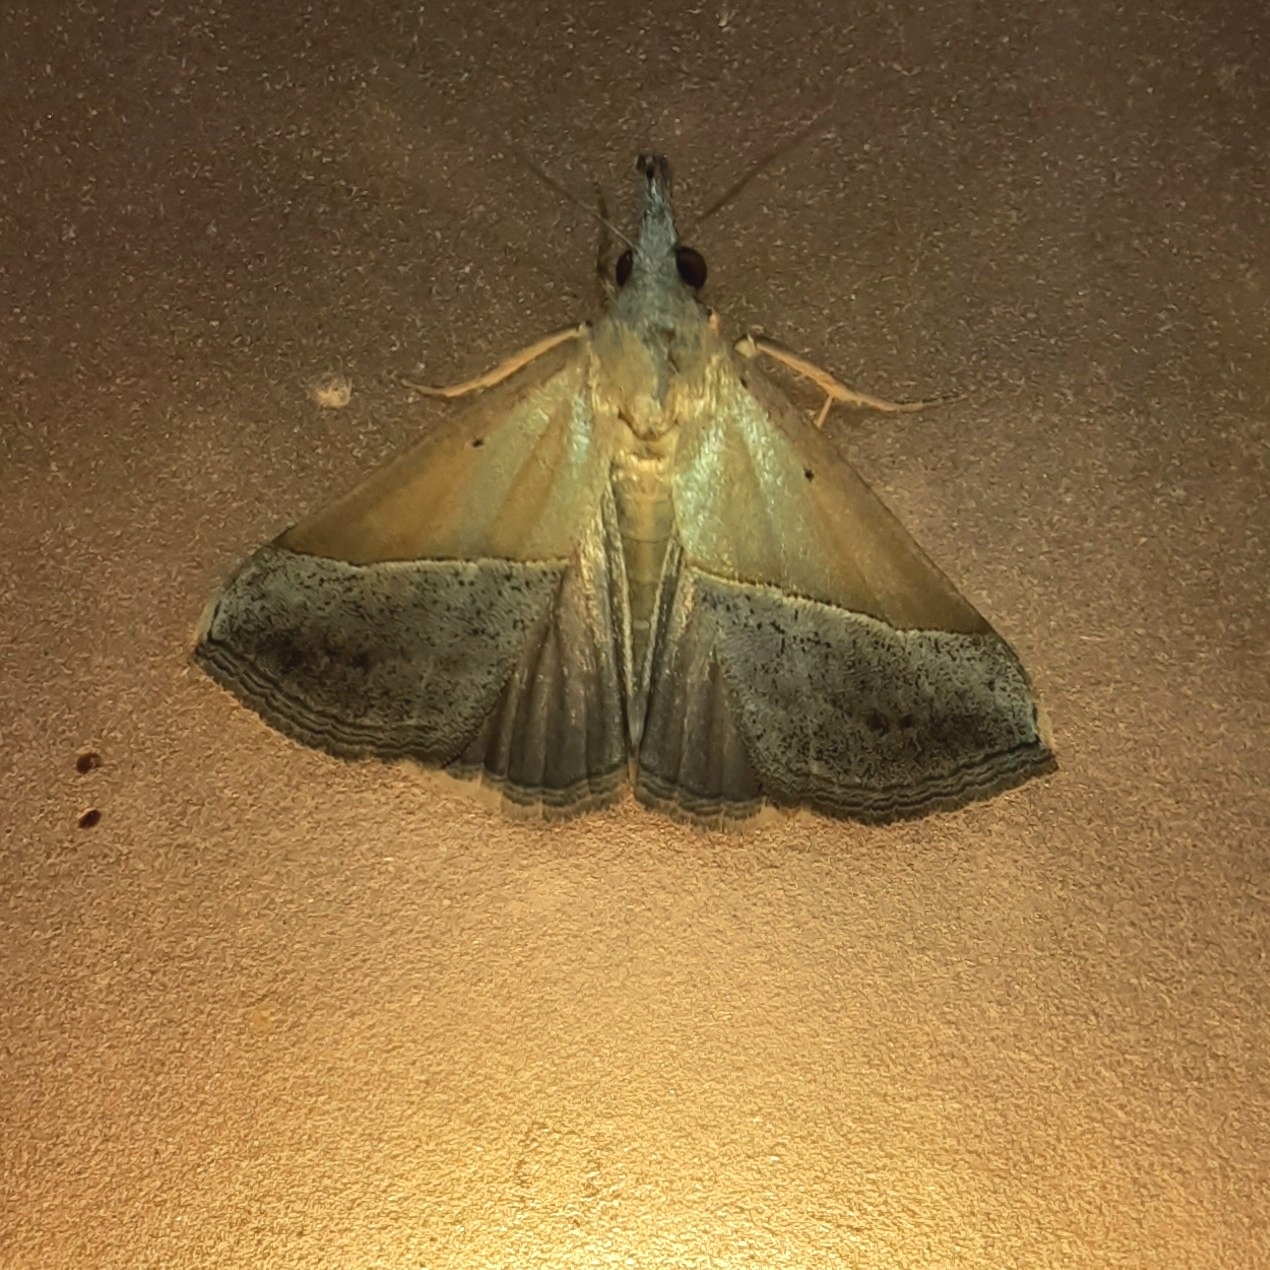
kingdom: Animalia
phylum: Arthropoda
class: Insecta
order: Lepidoptera
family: Erebidae
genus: Hypena
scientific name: Hypena lividalis
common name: Chevron snout
